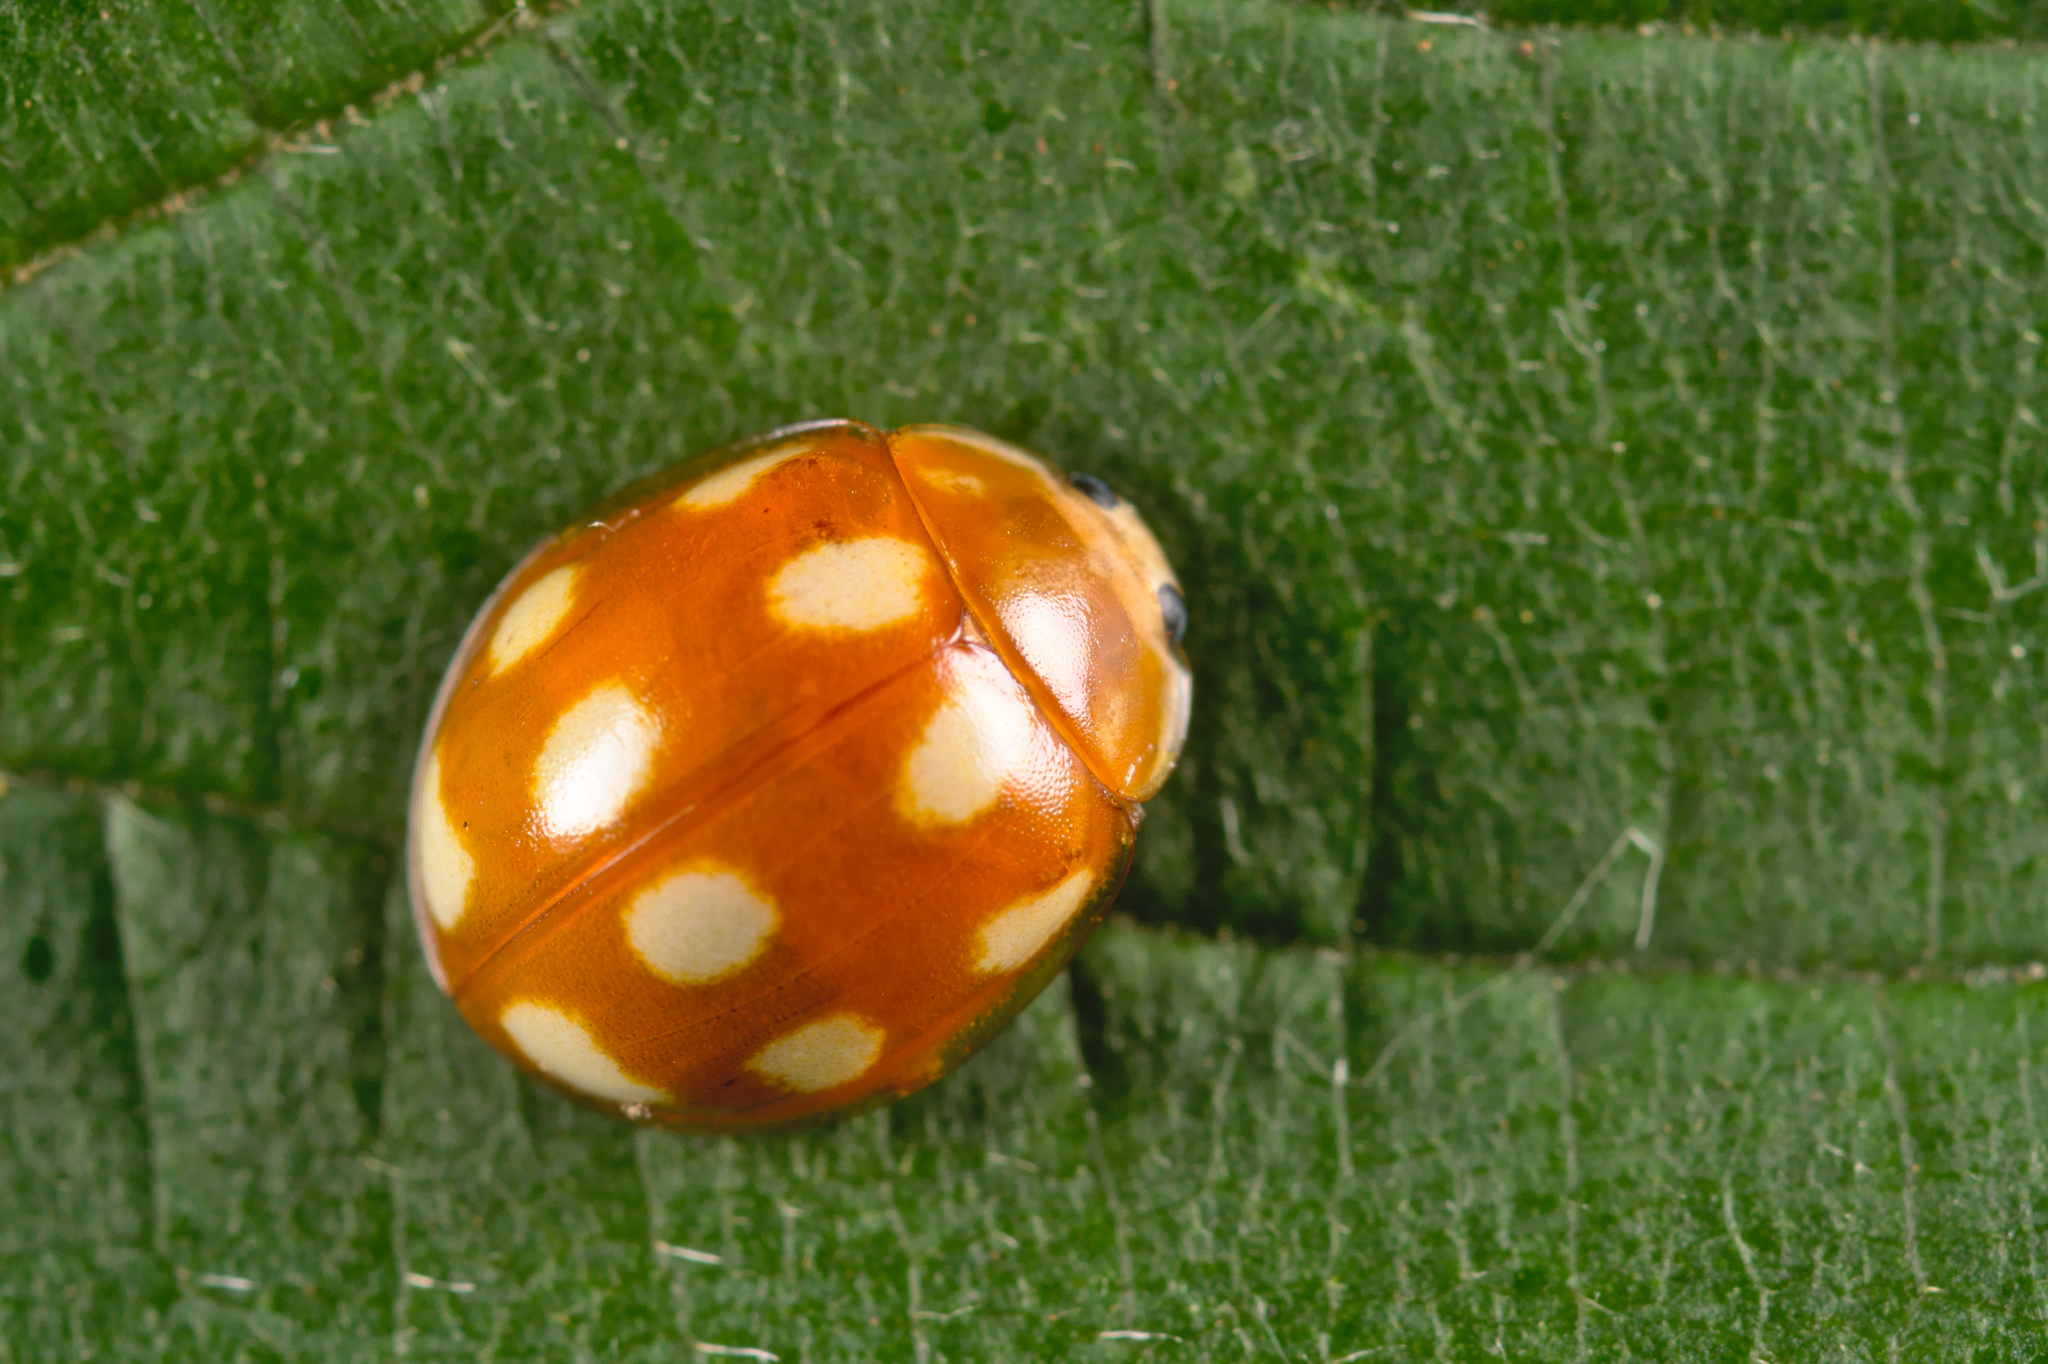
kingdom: Animalia
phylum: Arthropoda
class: Insecta
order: Coleoptera
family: Coccinellidae
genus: Calvia
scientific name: Calvia decemguttata
